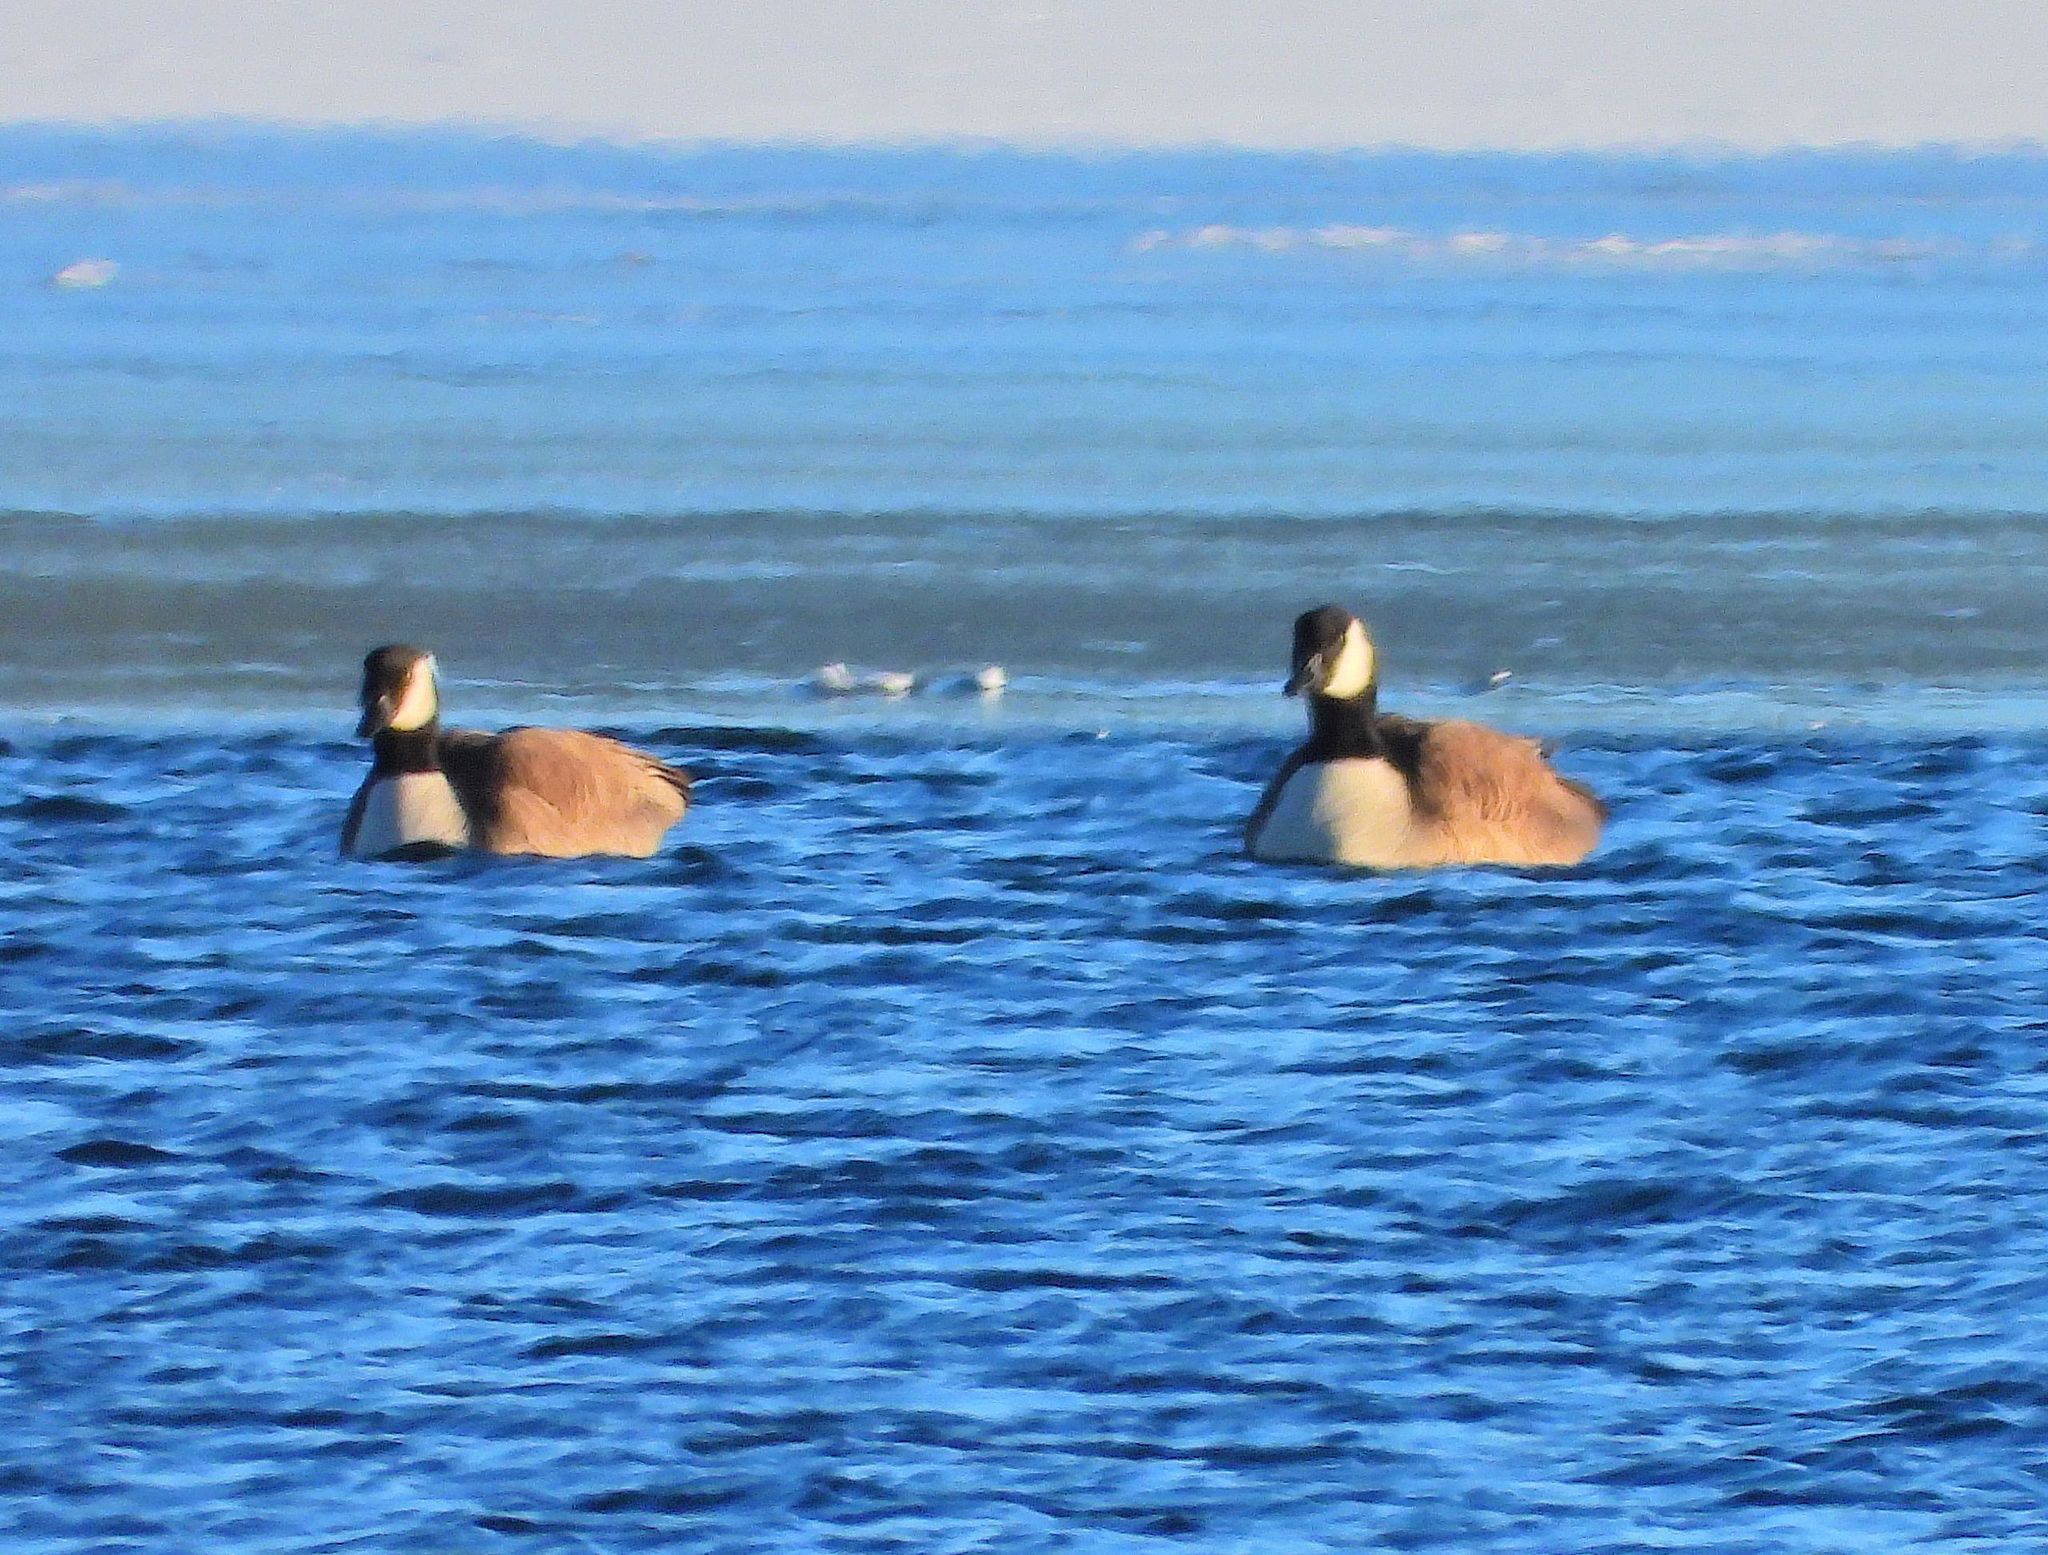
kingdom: Animalia
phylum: Chordata
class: Aves
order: Anseriformes
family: Anatidae
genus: Branta
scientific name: Branta canadensis
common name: Canada goose
